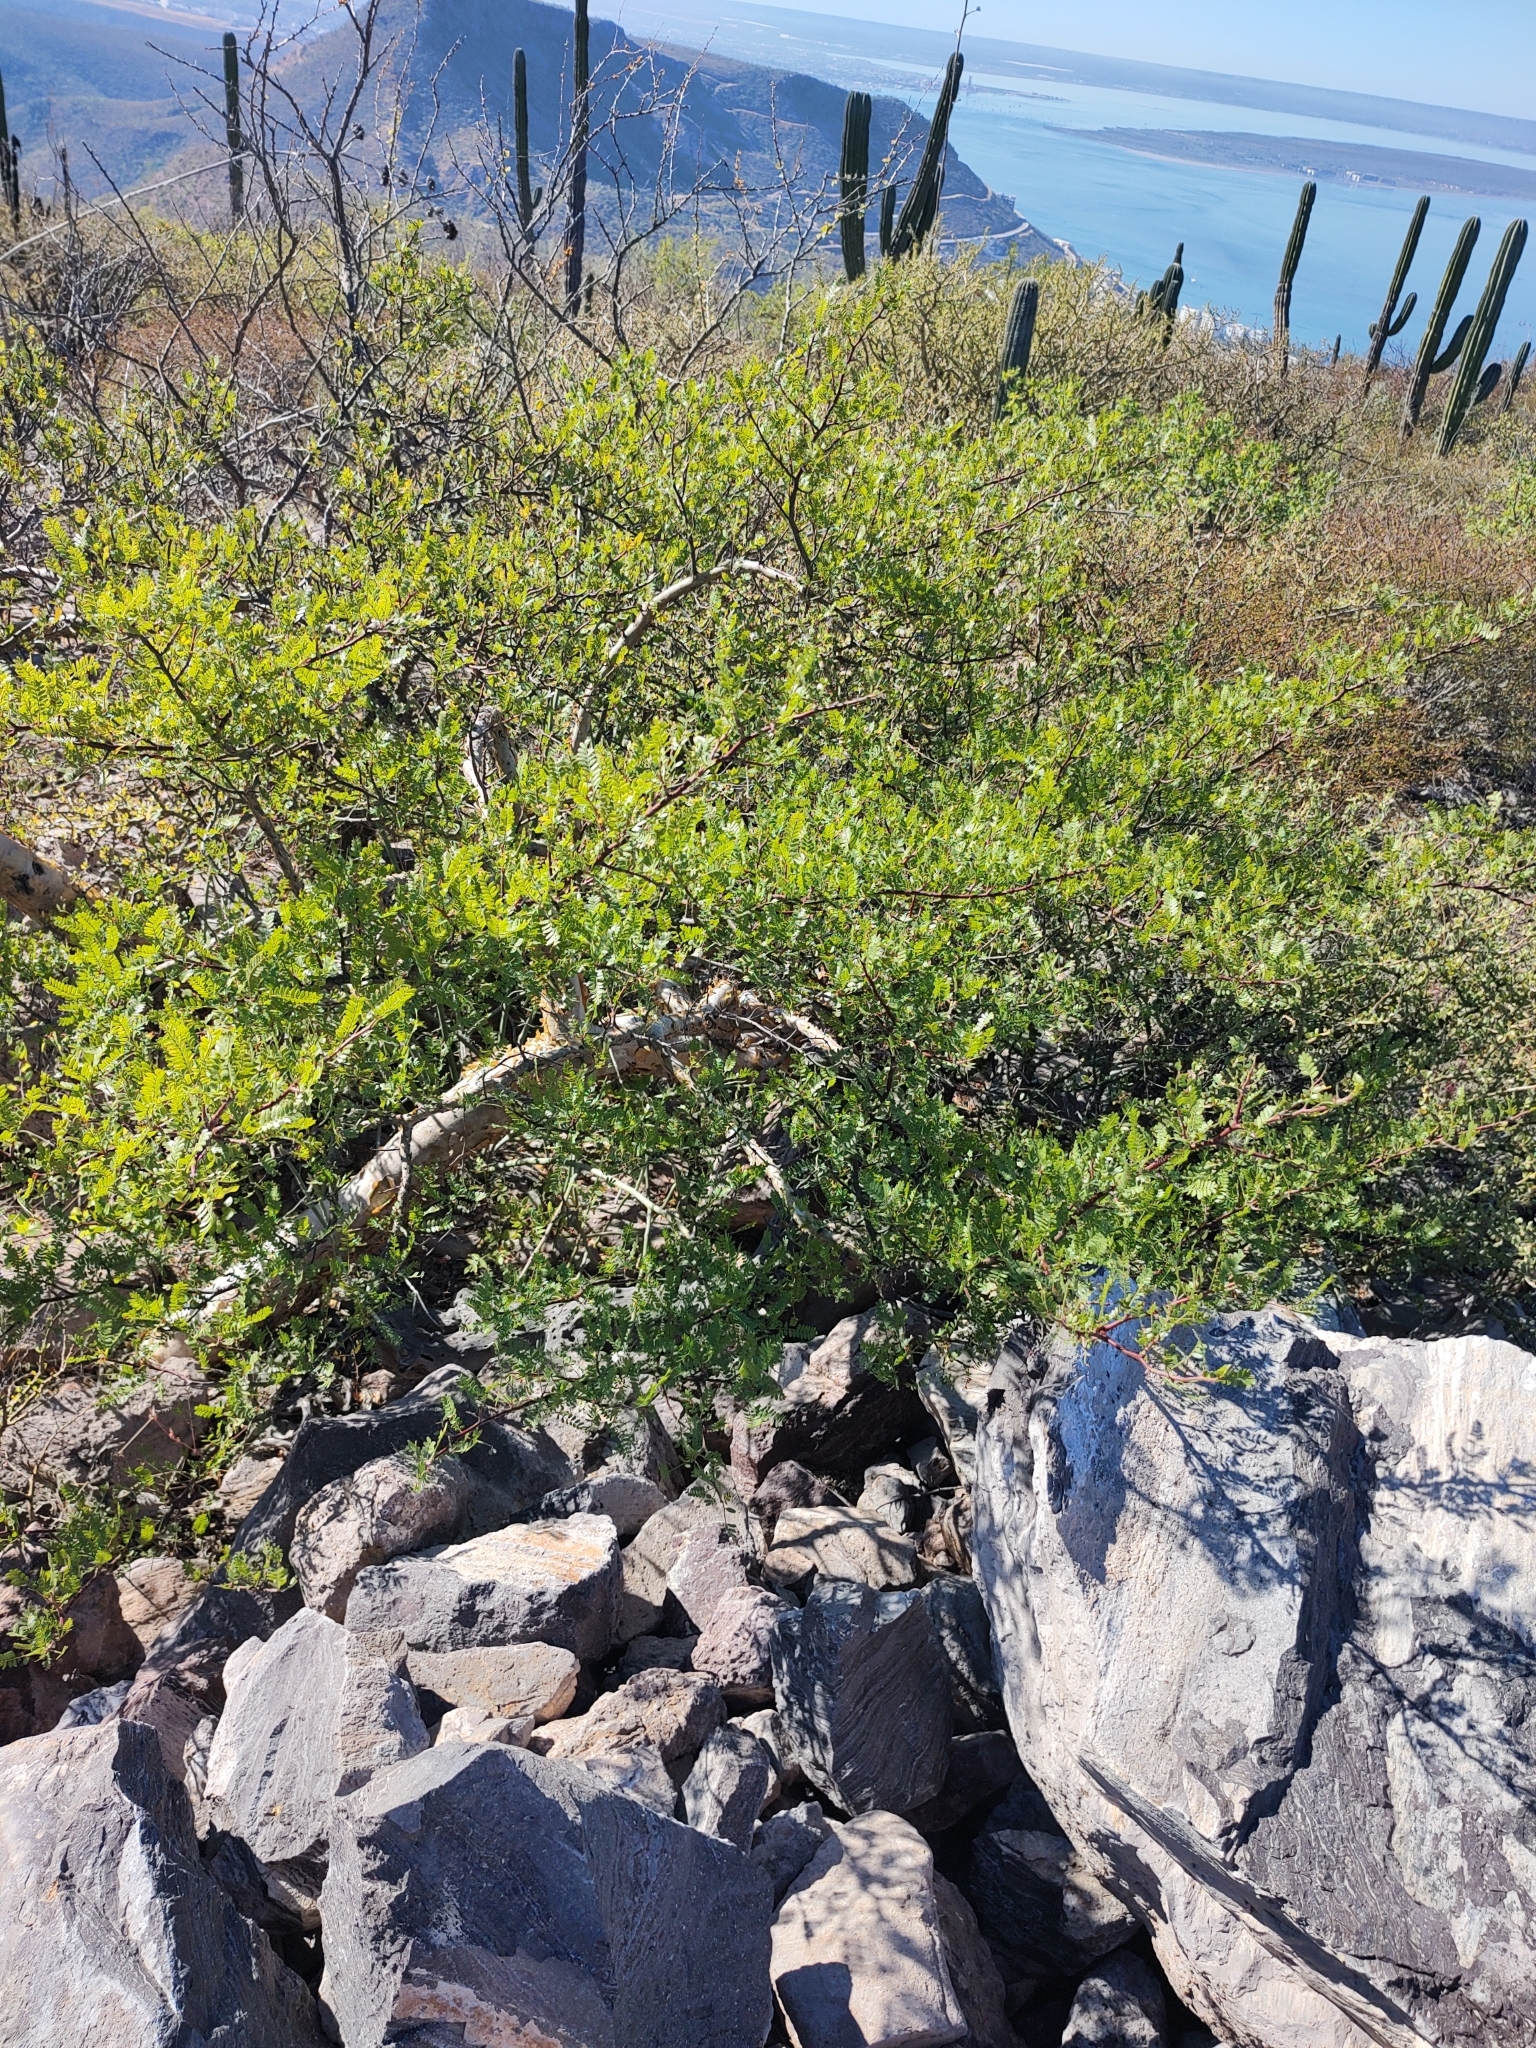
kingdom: Plantae
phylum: Tracheophyta
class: Magnoliopsida
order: Sapindales
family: Burseraceae
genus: Bursera
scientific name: Bursera microphylla
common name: Elephant tree
